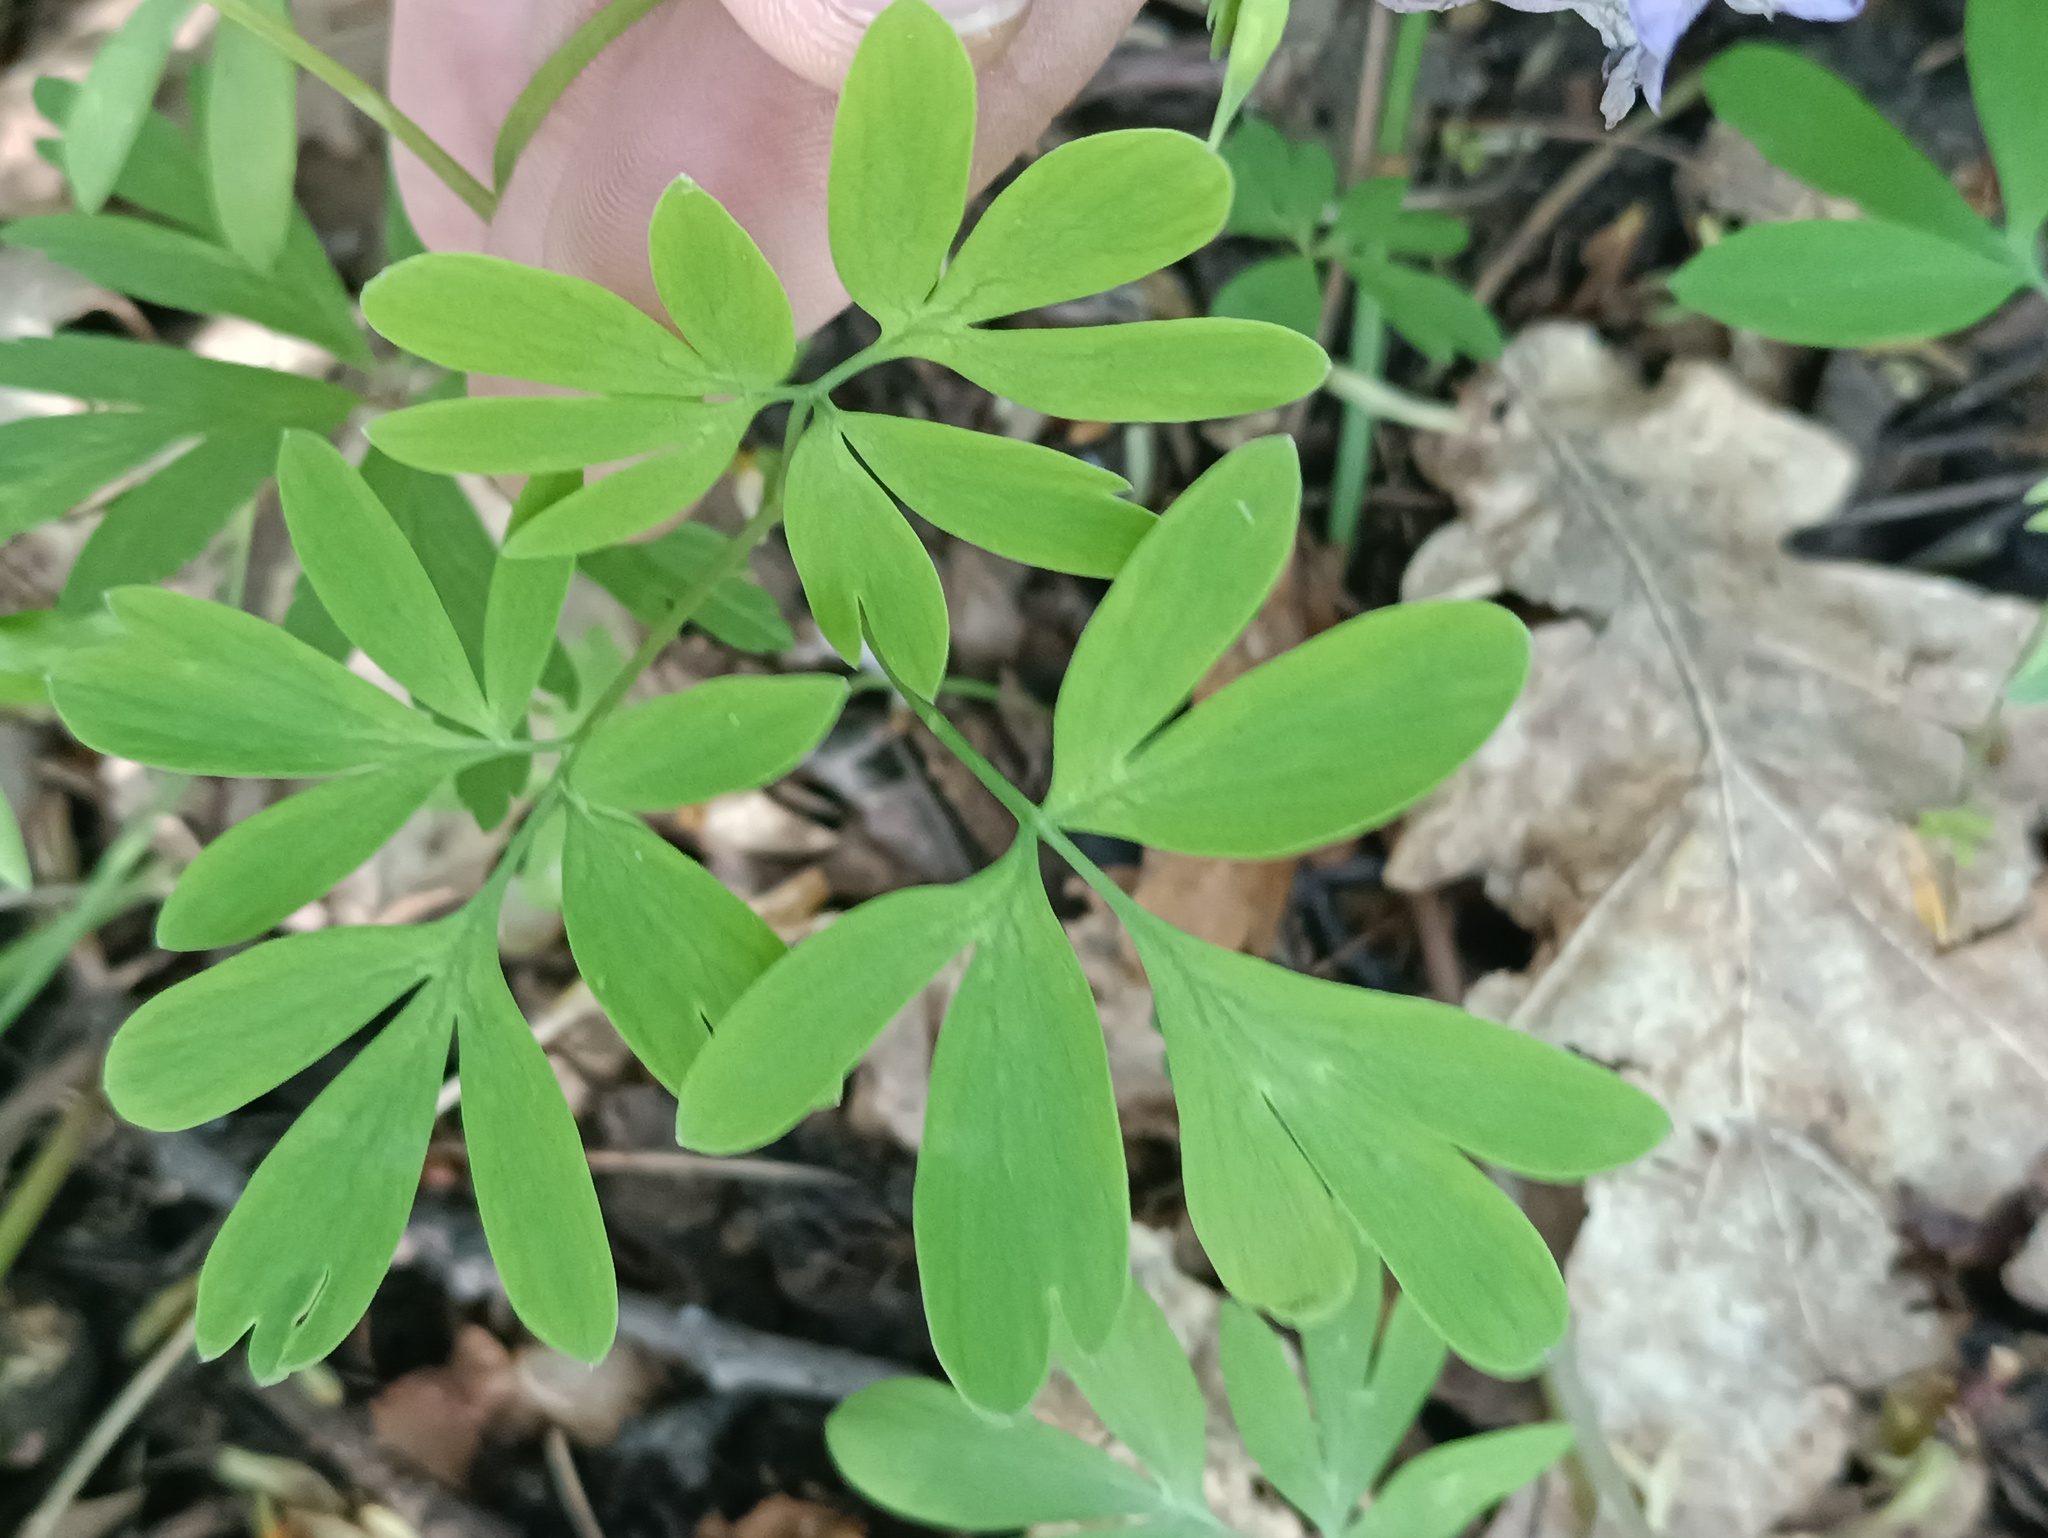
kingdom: Plantae
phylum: Tracheophyta
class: Magnoliopsida
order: Ranunculales
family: Papaveraceae
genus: Corydalis
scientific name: Corydalis solida
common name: Bird-in-a-bush
